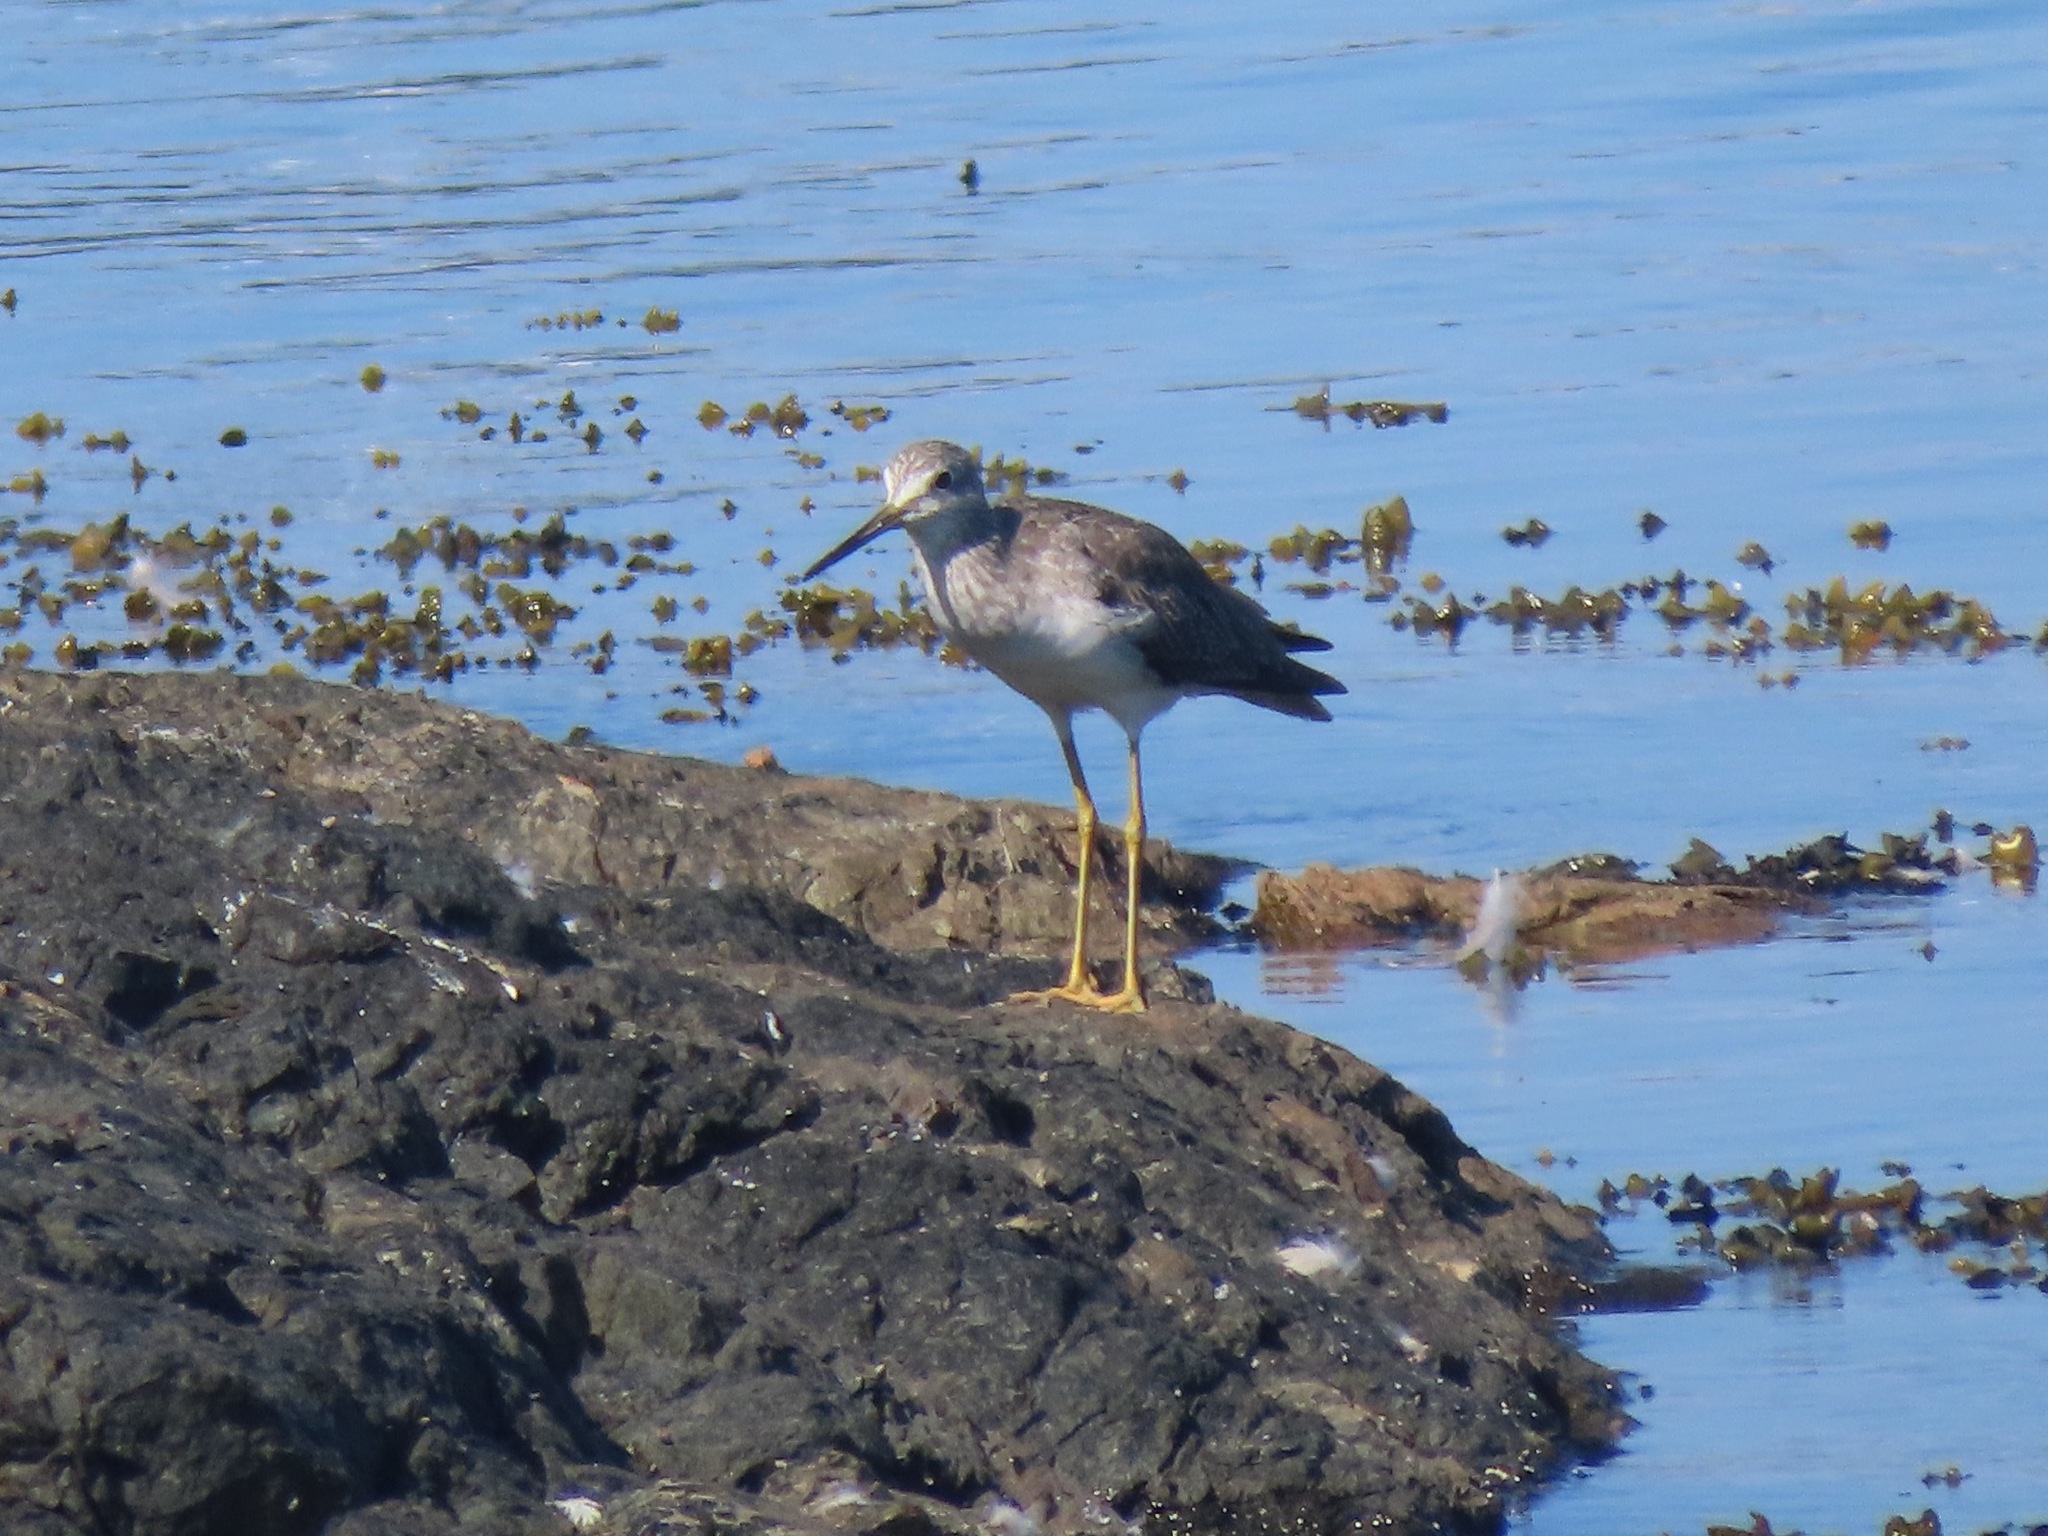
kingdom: Animalia
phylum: Chordata
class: Aves
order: Charadriiformes
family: Scolopacidae
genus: Tringa
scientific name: Tringa melanoleuca
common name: Greater yellowlegs
